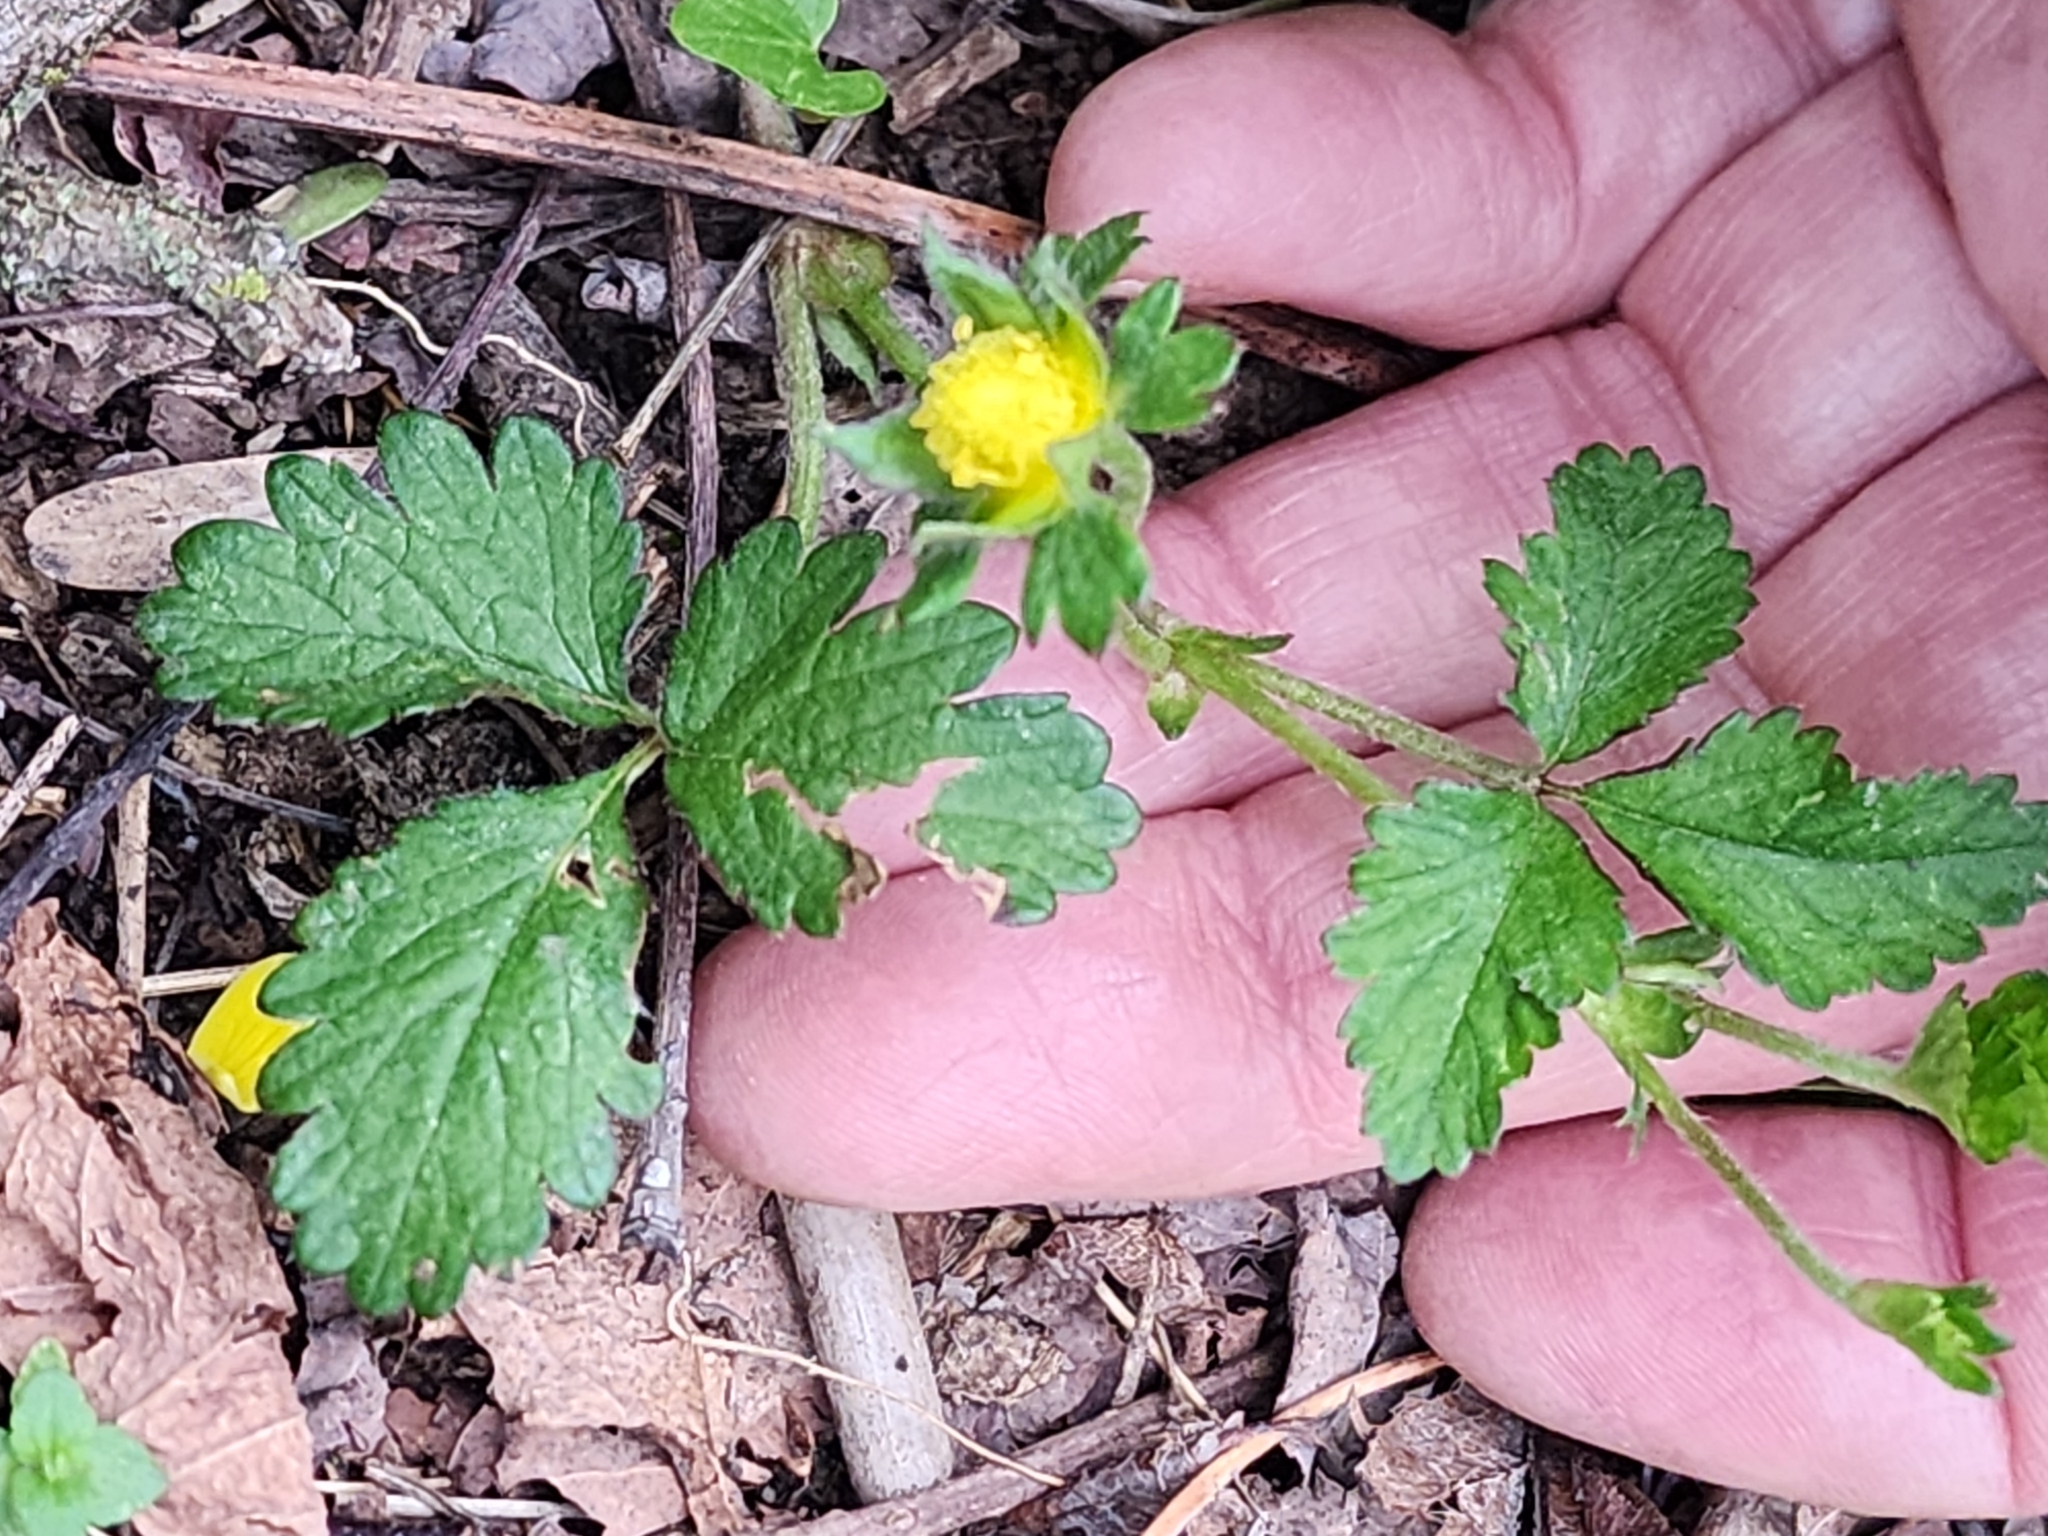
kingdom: Plantae
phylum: Tracheophyta
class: Magnoliopsida
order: Rosales
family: Rosaceae
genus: Potentilla
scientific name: Potentilla indica
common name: Yellow-flowered strawberry
